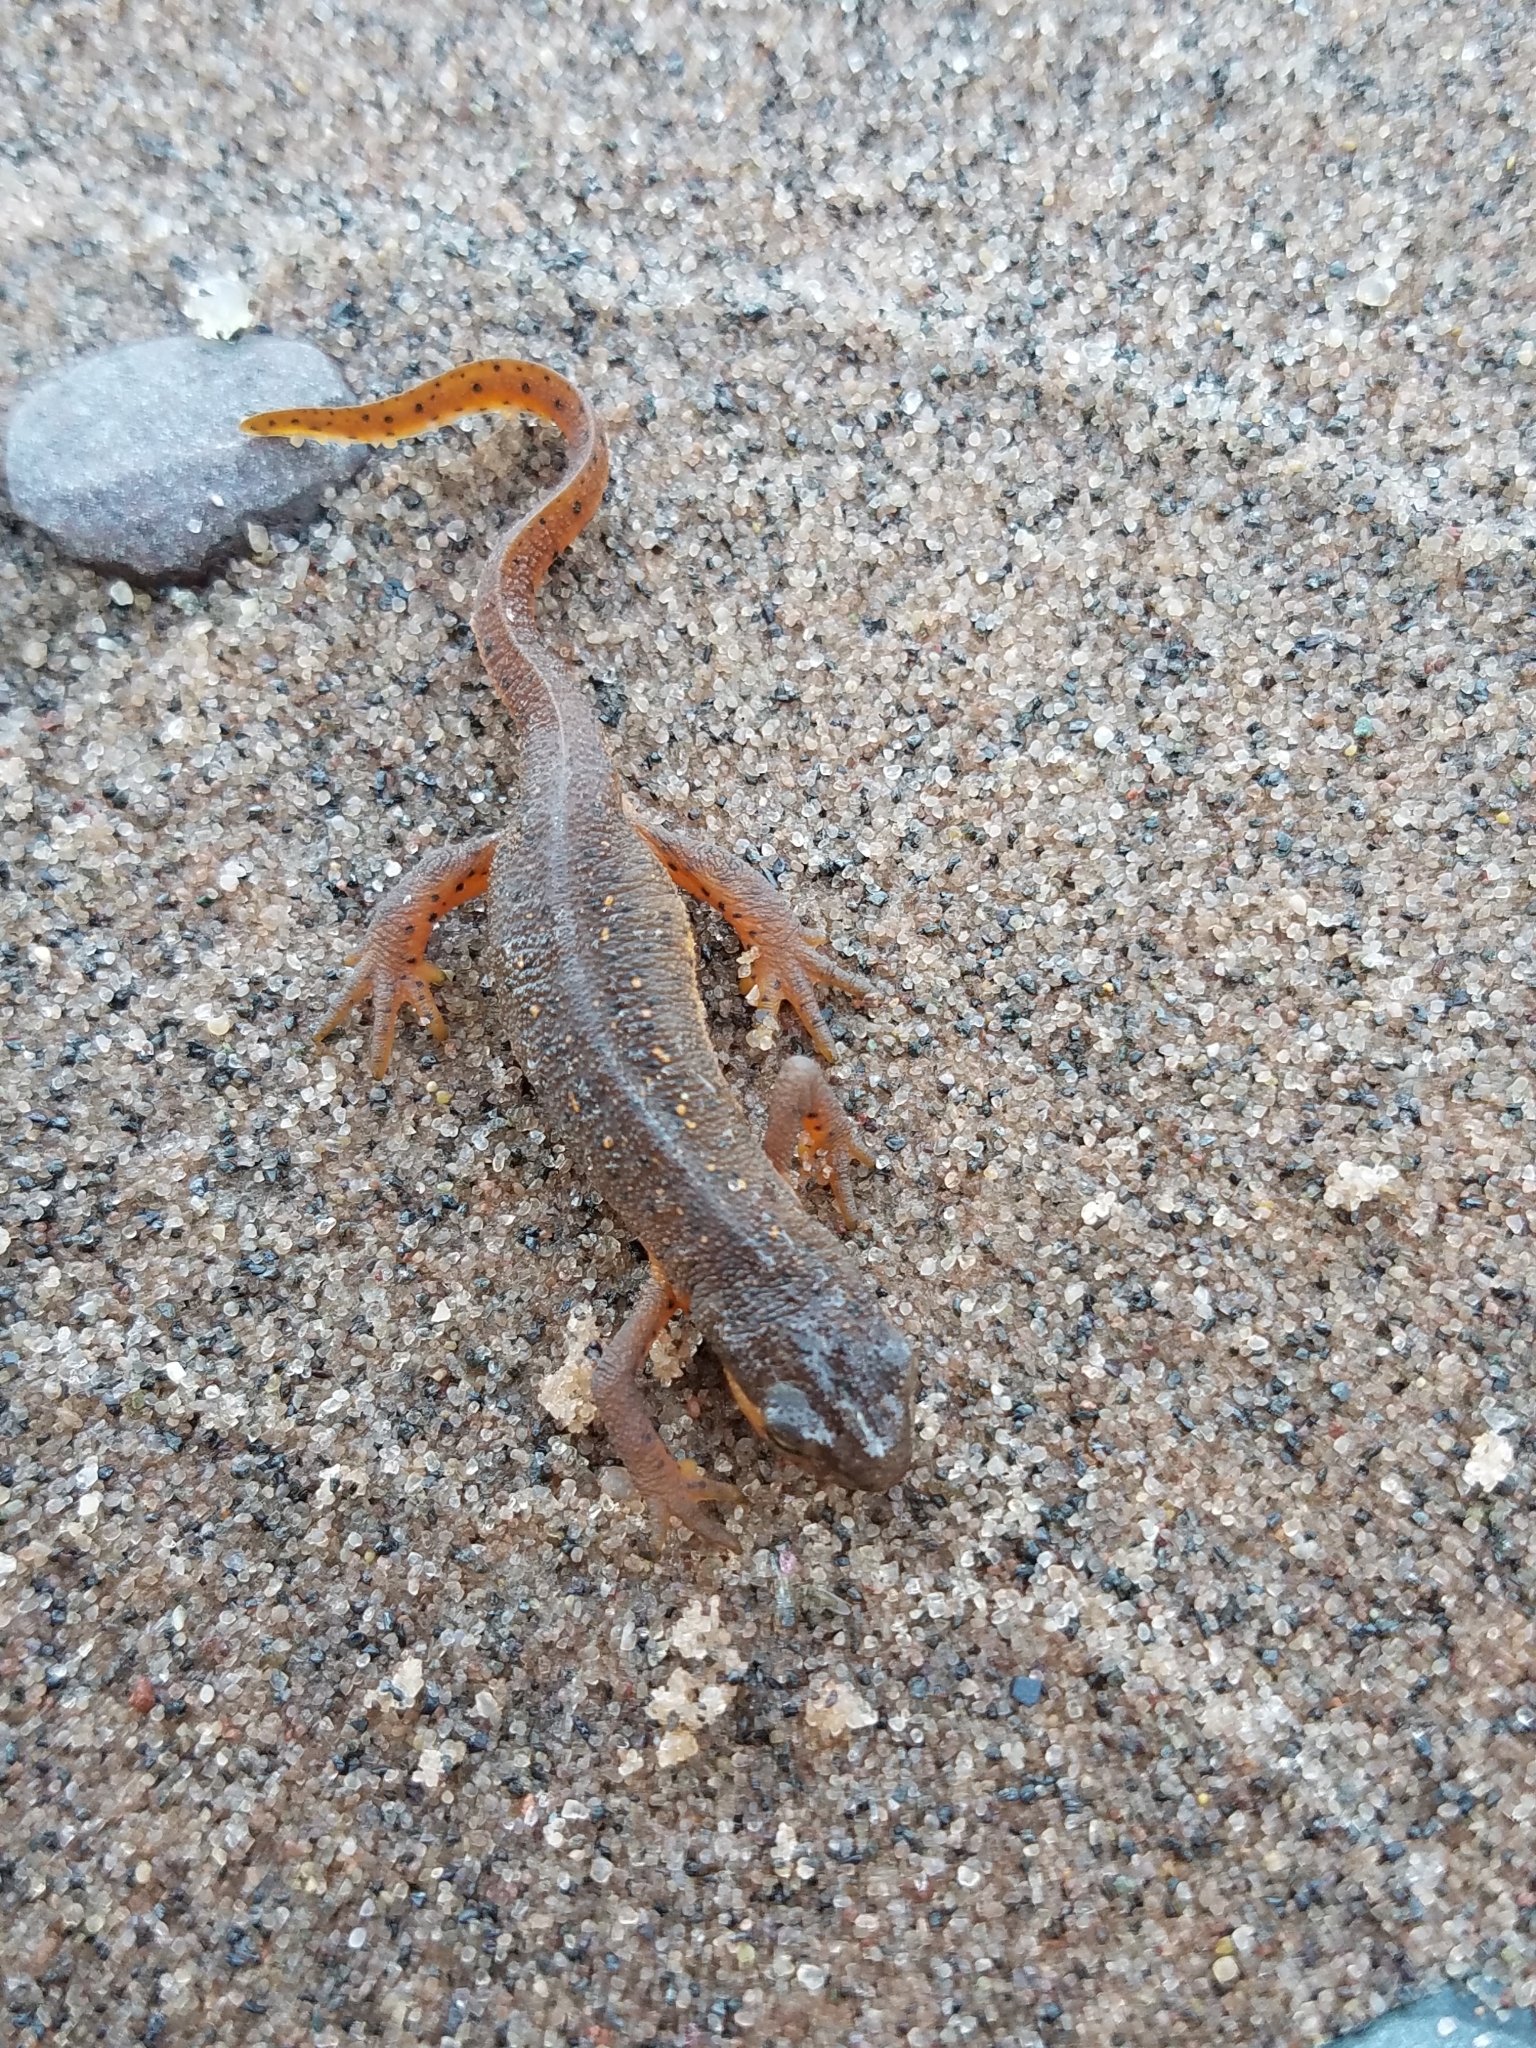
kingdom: Animalia
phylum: Chordata
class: Amphibia
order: Caudata
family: Salamandridae
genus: Notophthalmus
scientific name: Notophthalmus viridescens
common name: Eastern newt
